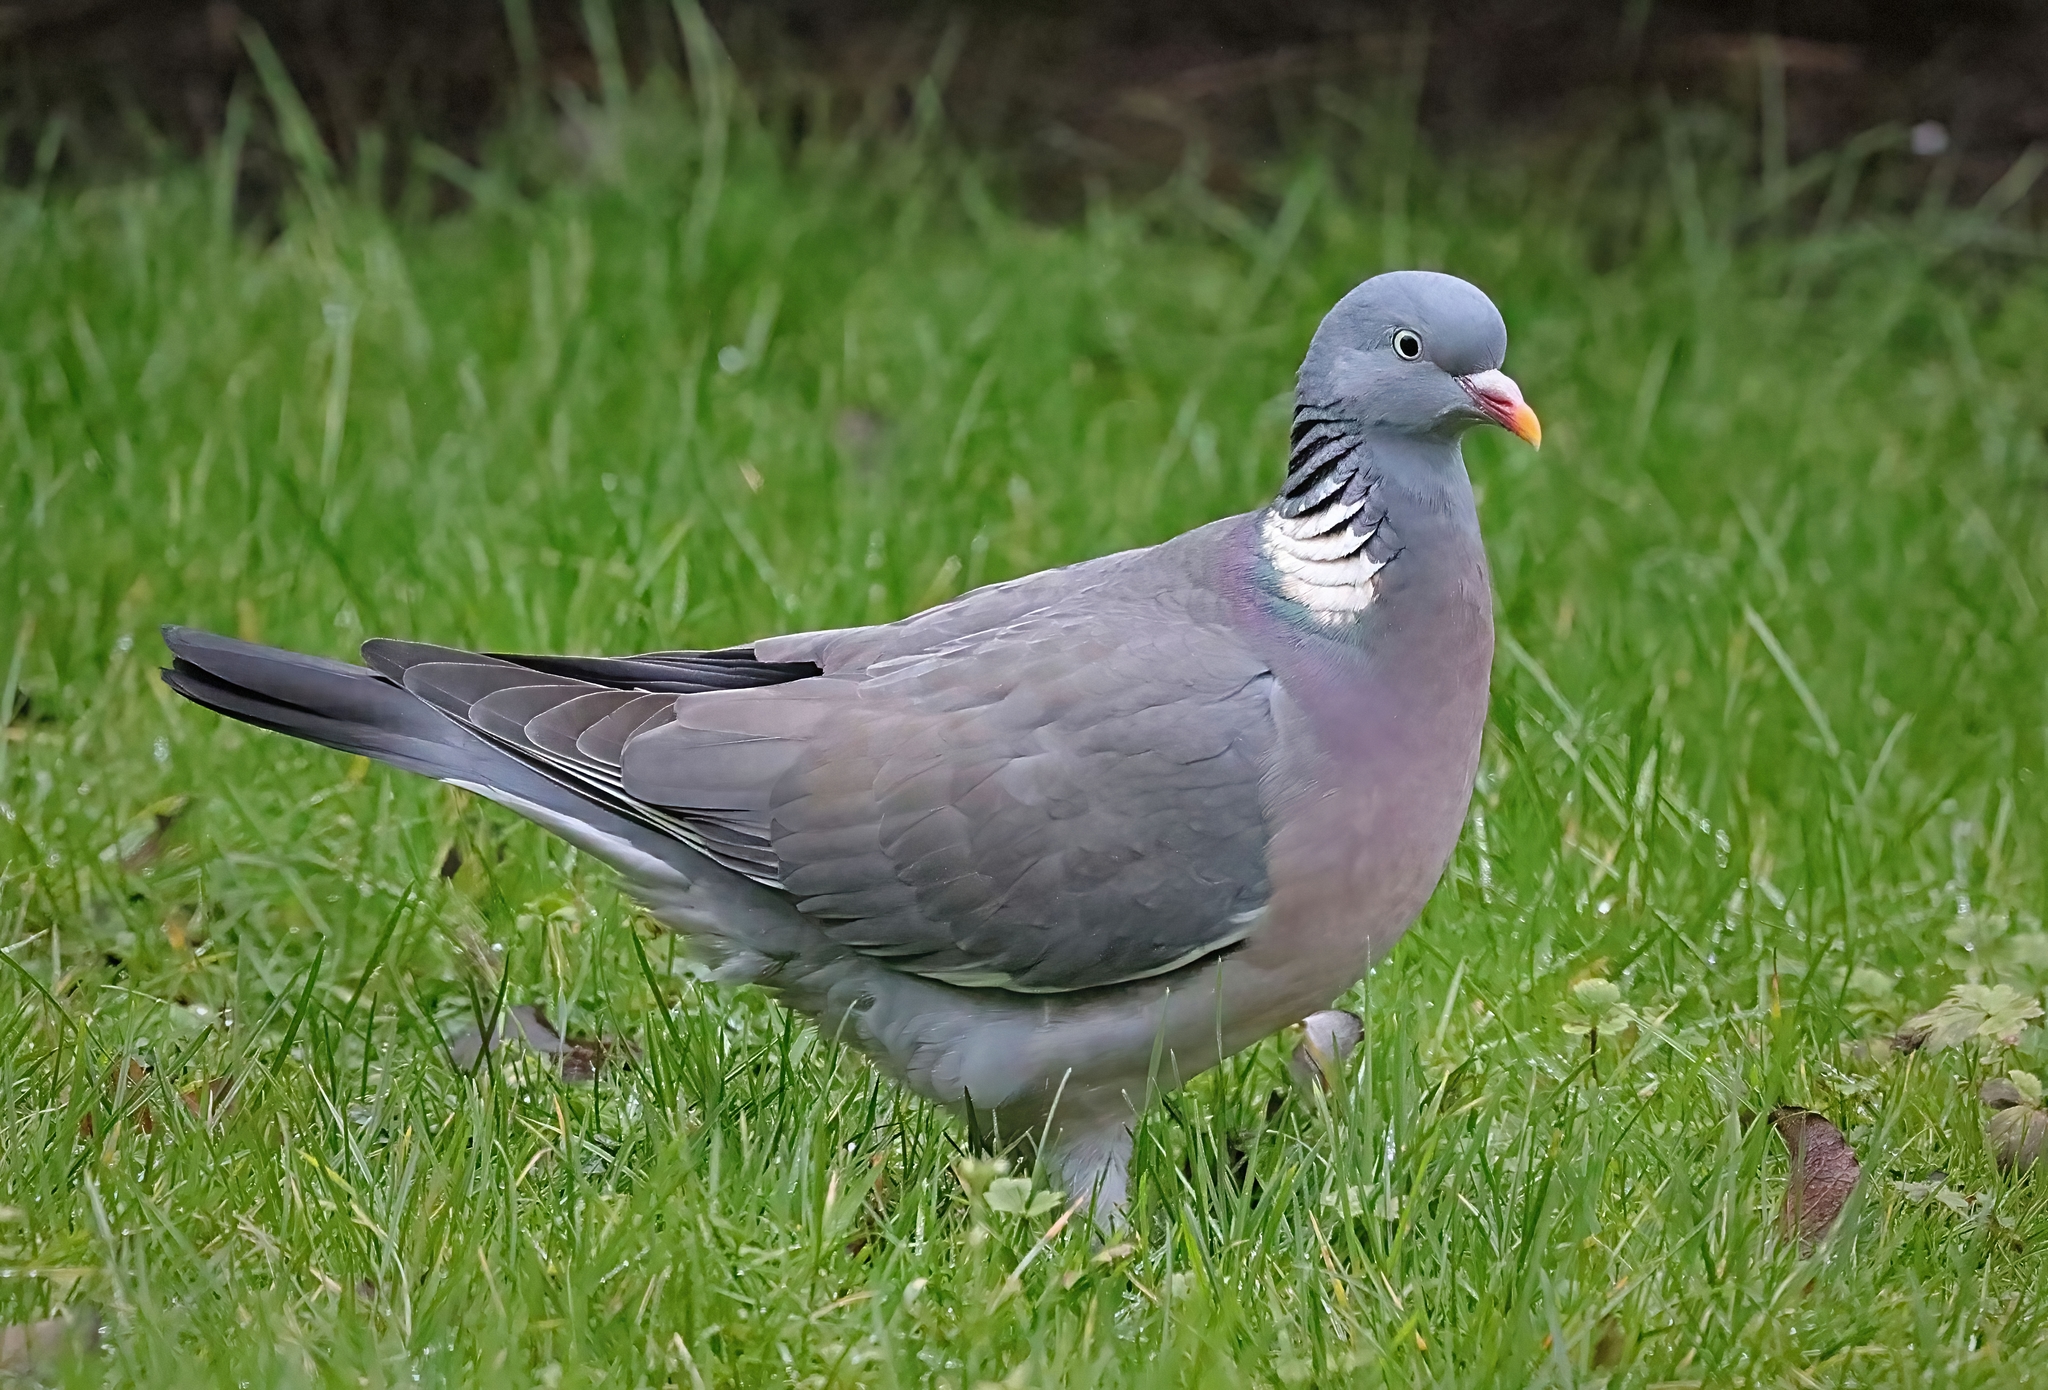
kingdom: Animalia
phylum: Chordata
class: Aves
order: Columbiformes
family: Columbidae
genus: Columba
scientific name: Columba palumbus
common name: Common wood pigeon
